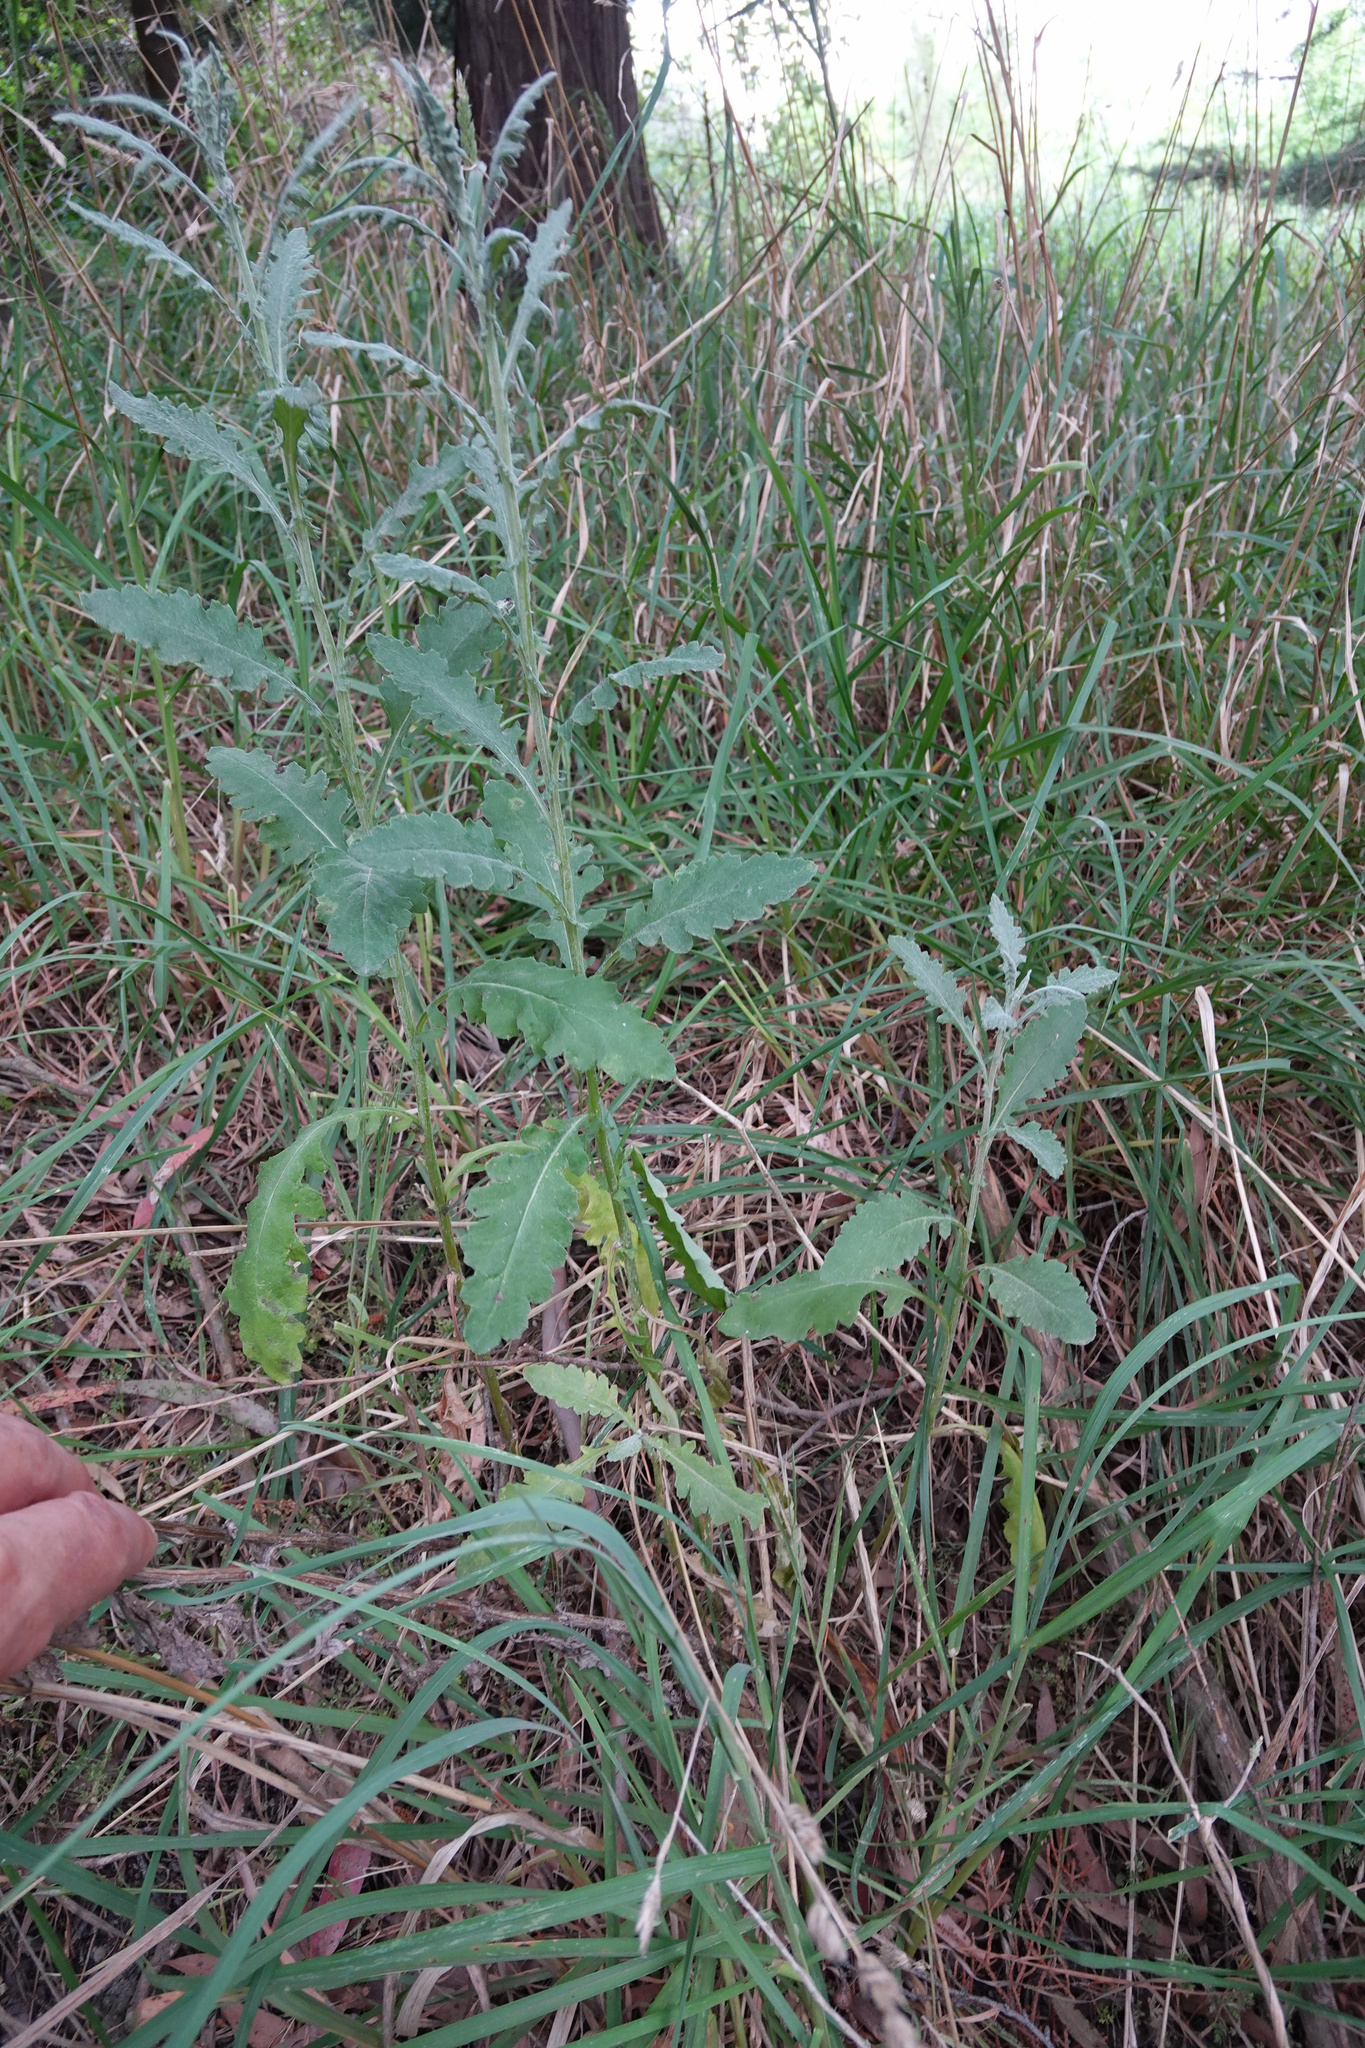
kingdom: Plantae
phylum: Tracheophyta
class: Magnoliopsida
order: Asterales
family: Asteraceae
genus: Senecio
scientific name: Senecio glomeratus
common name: Cutleaf burnweed
